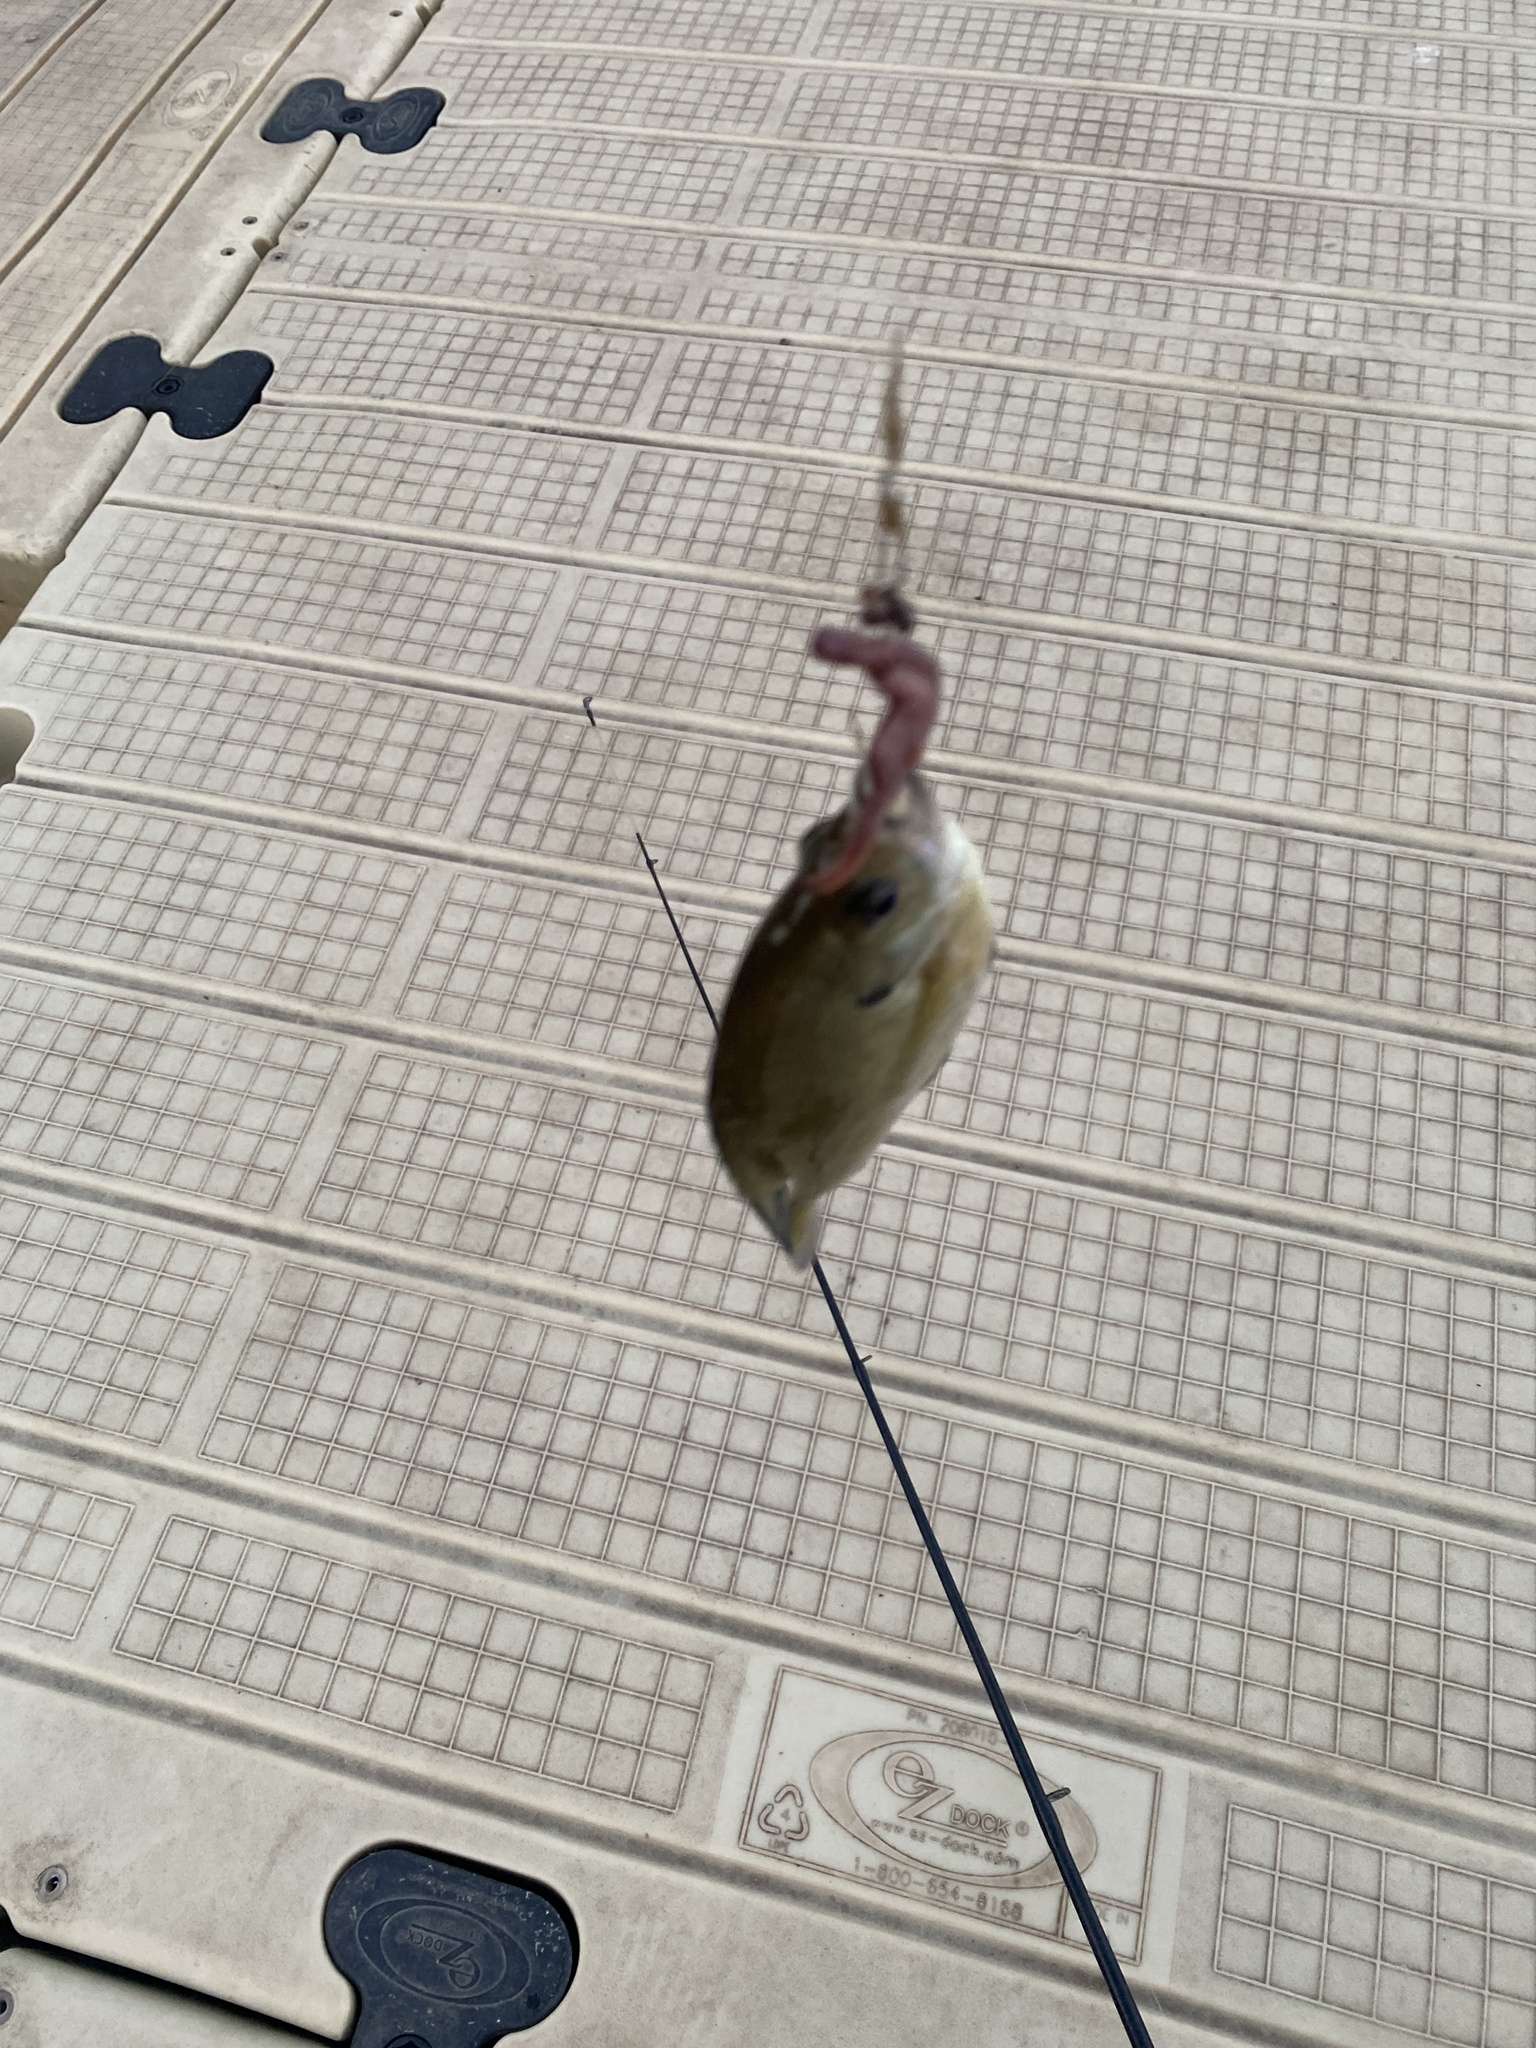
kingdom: Animalia
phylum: Chordata
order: Perciformes
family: Centrarchidae
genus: Lepomis
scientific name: Lepomis macrochirus
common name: Bluegill
